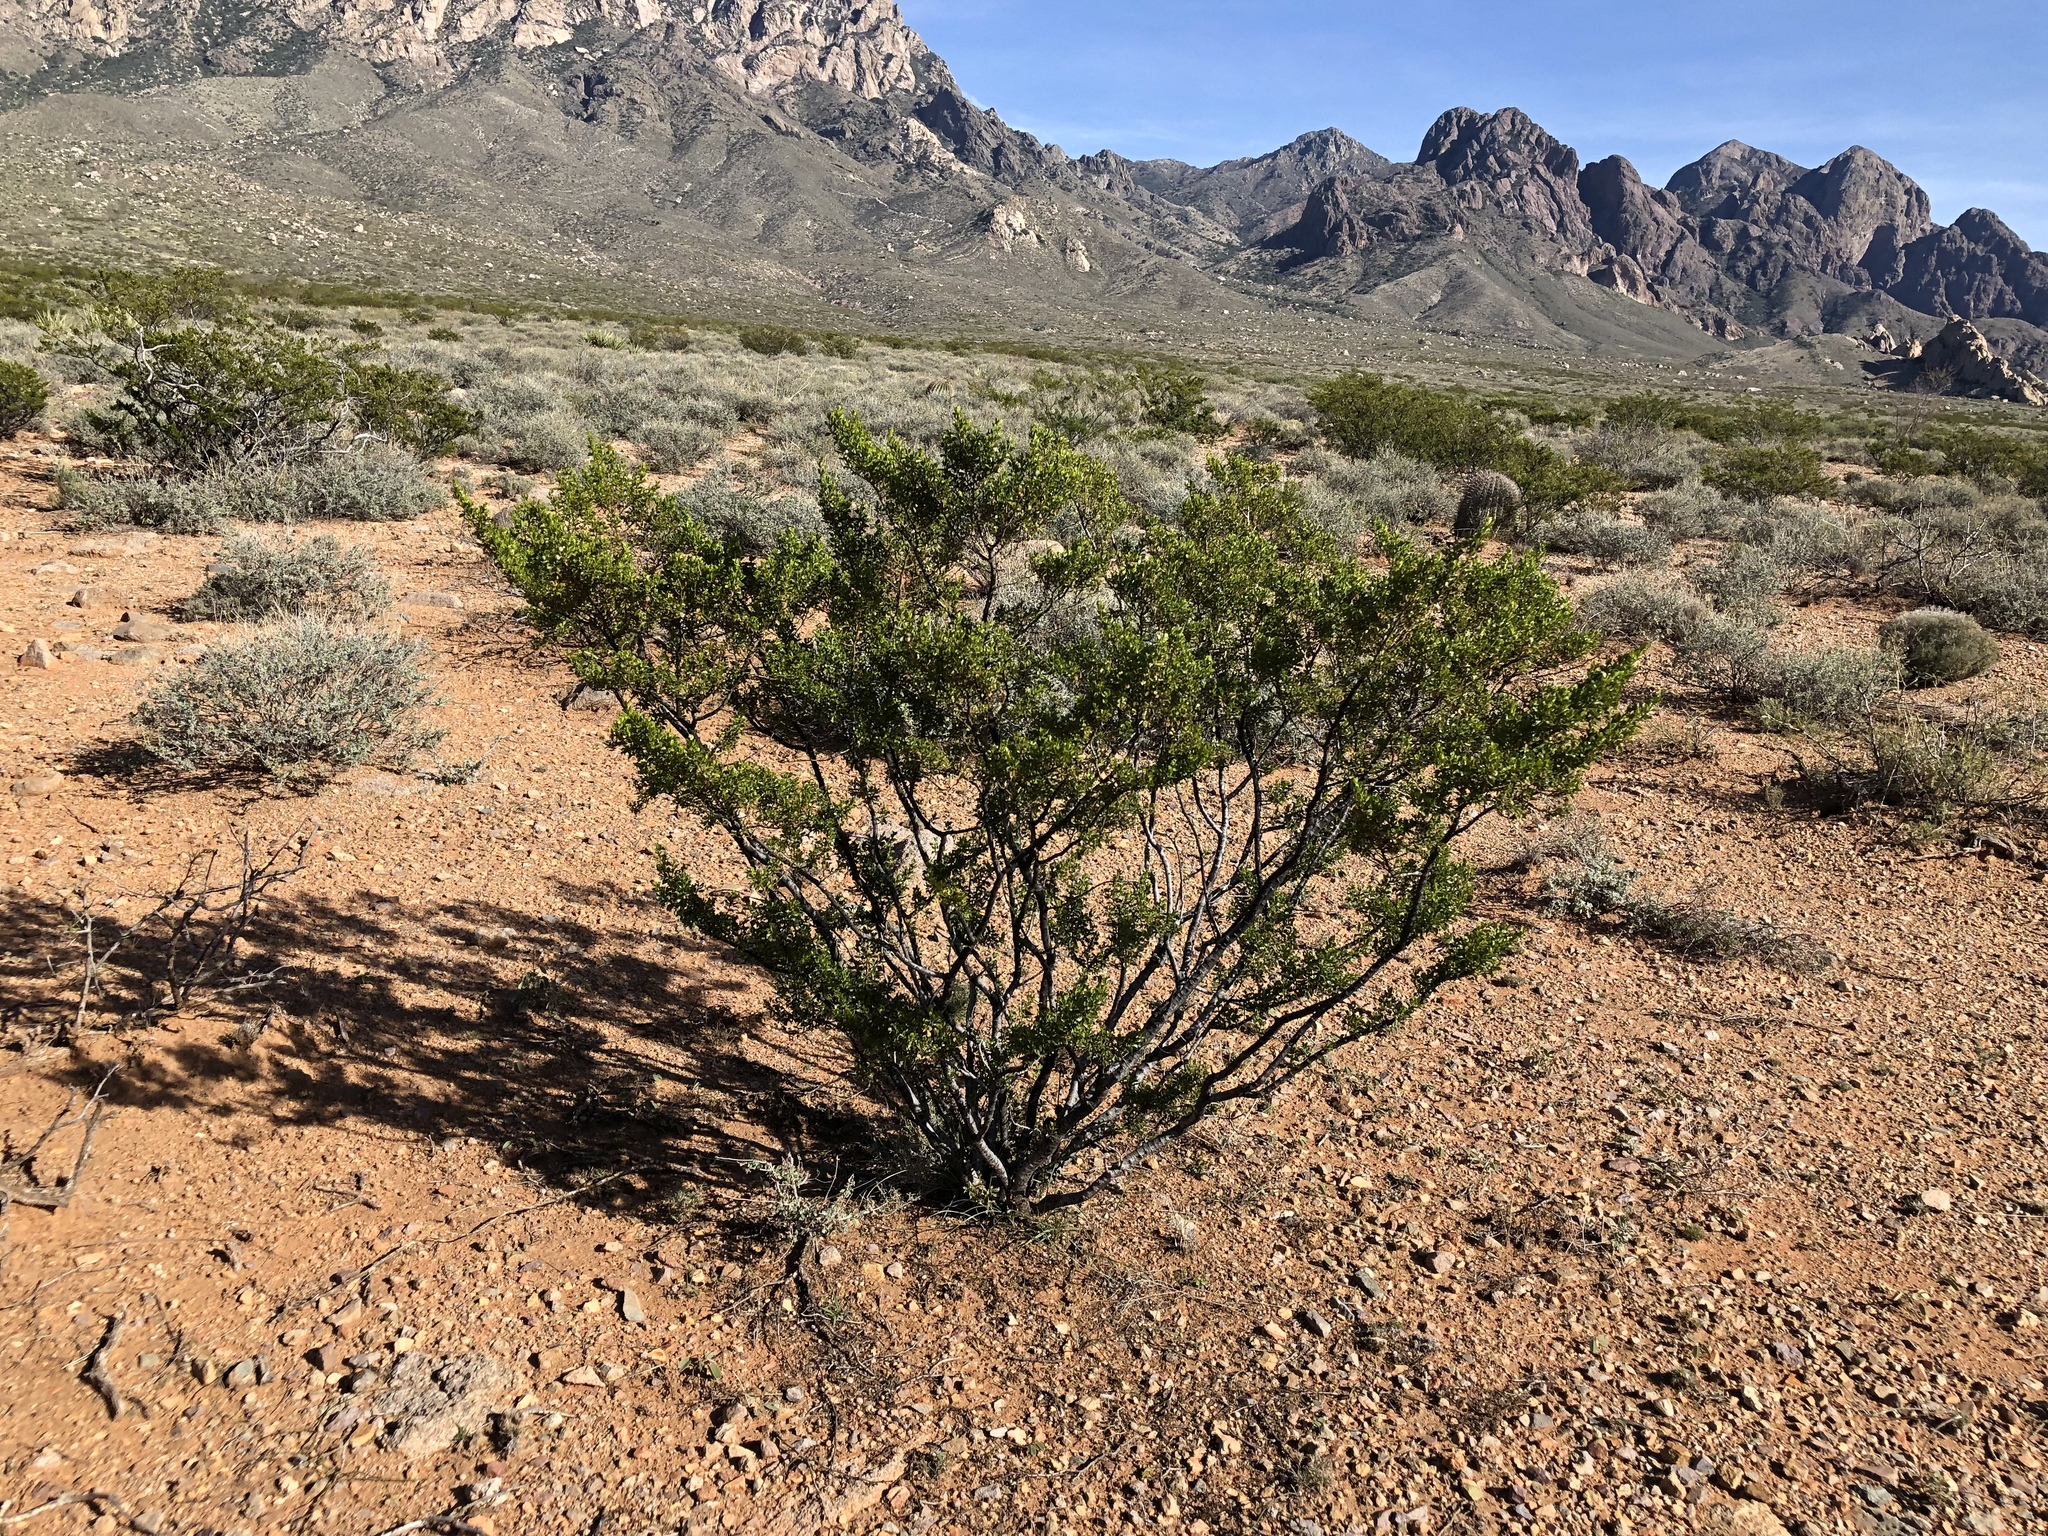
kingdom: Plantae
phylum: Tracheophyta
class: Magnoliopsida
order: Zygophyllales
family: Zygophyllaceae
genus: Larrea
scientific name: Larrea tridentata
